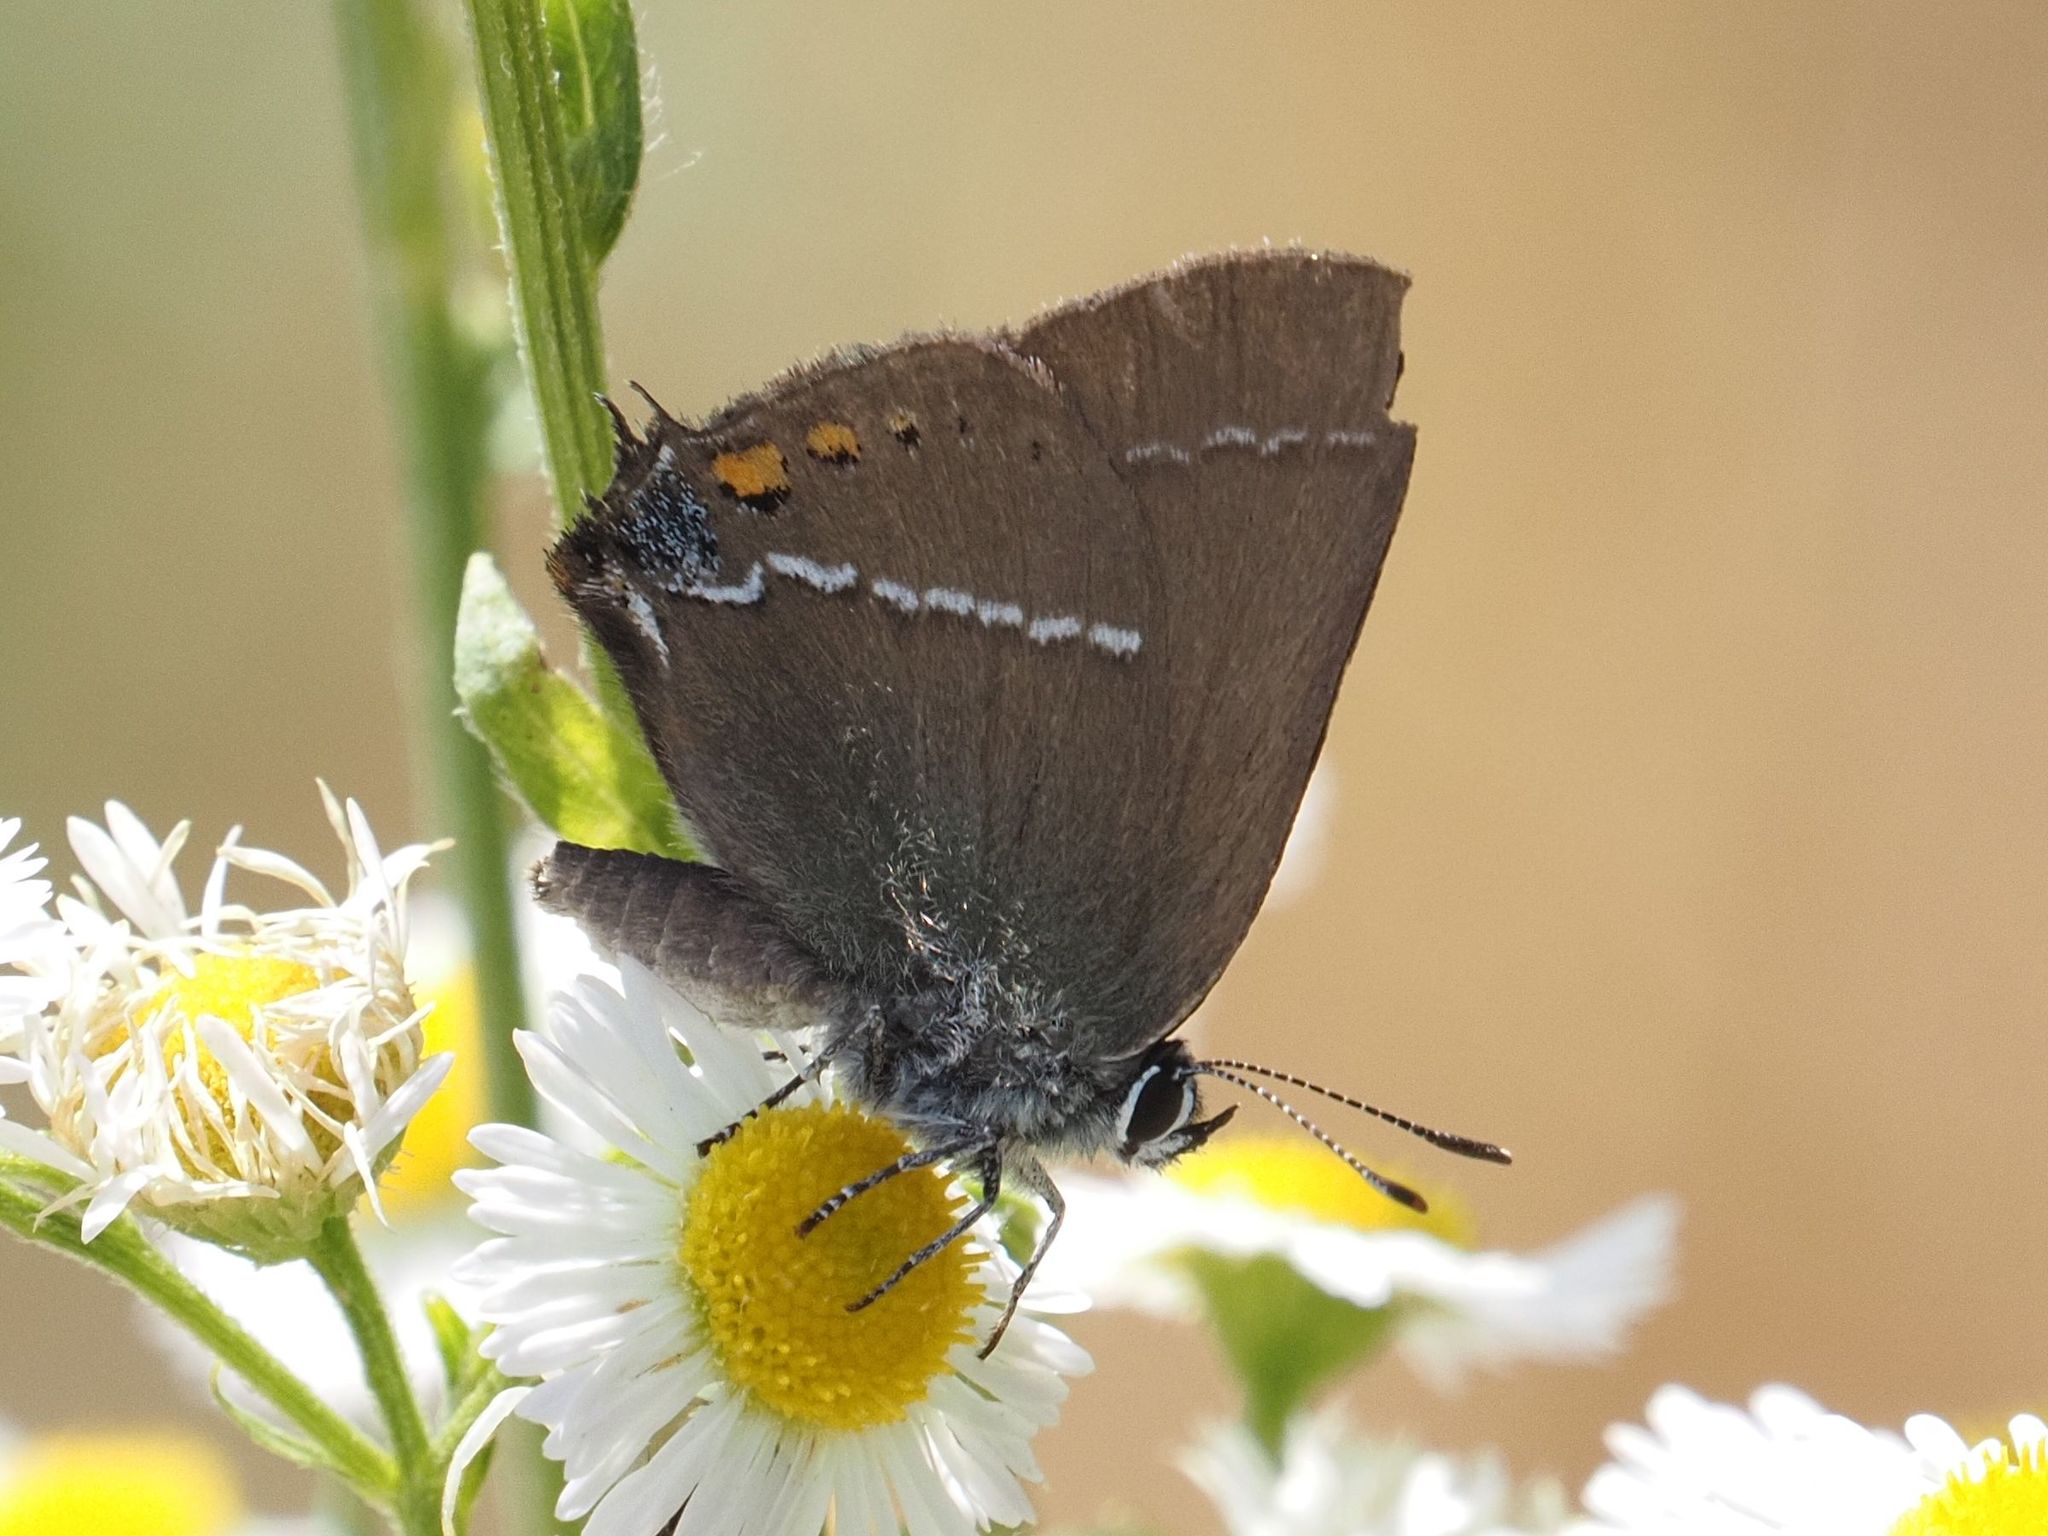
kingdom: Animalia
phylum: Arthropoda
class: Insecta
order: Lepidoptera
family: Lycaenidae
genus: Tuttiola
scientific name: Tuttiola spini
